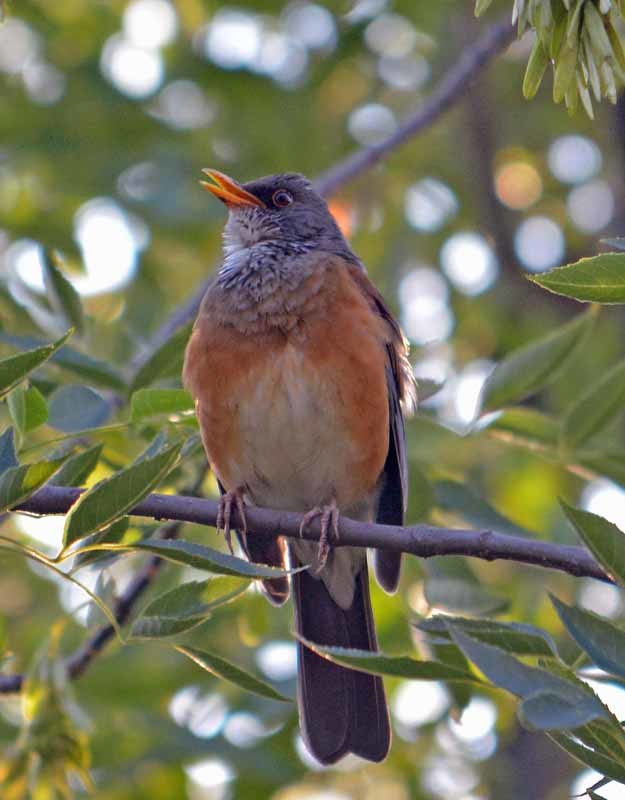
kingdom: Animalia
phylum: Chordata
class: Aves
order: Passeriformes
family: Turdidae
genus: Turdus
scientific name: Turdus rufopalliatus
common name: Rufous-backed robin
